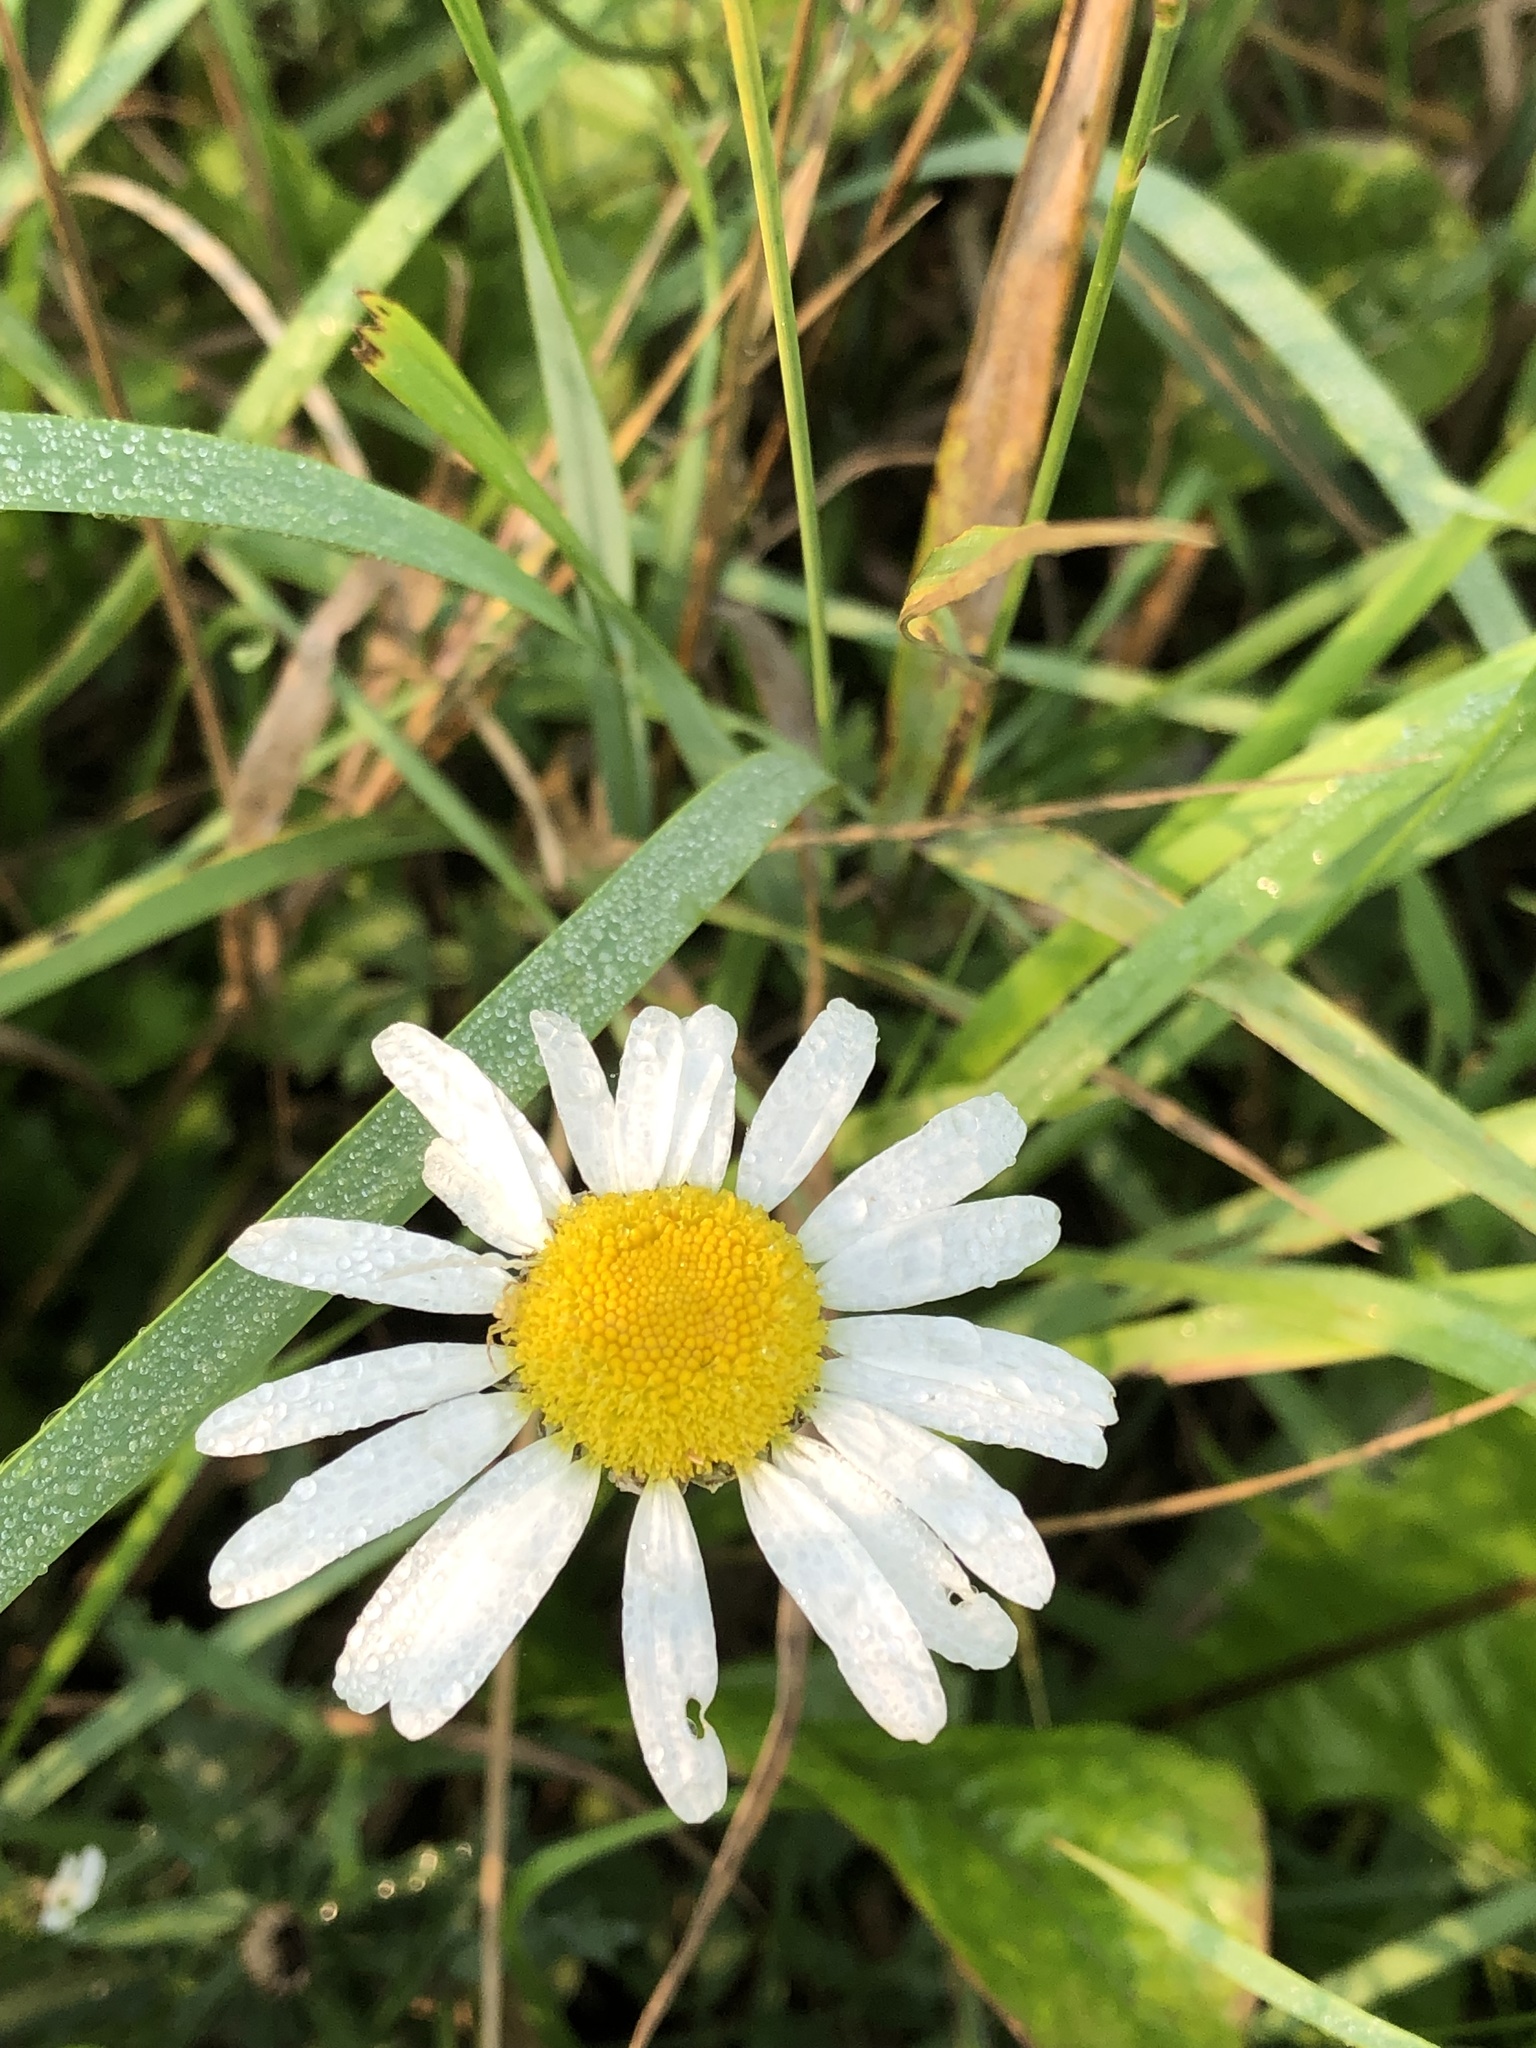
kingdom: Plantae
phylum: Tracheophyta
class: Magnoliopsida
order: Asterales
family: Asteraceae
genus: Leucanthemum
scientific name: Leucanthemum vulgare
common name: Oxeye daisy
